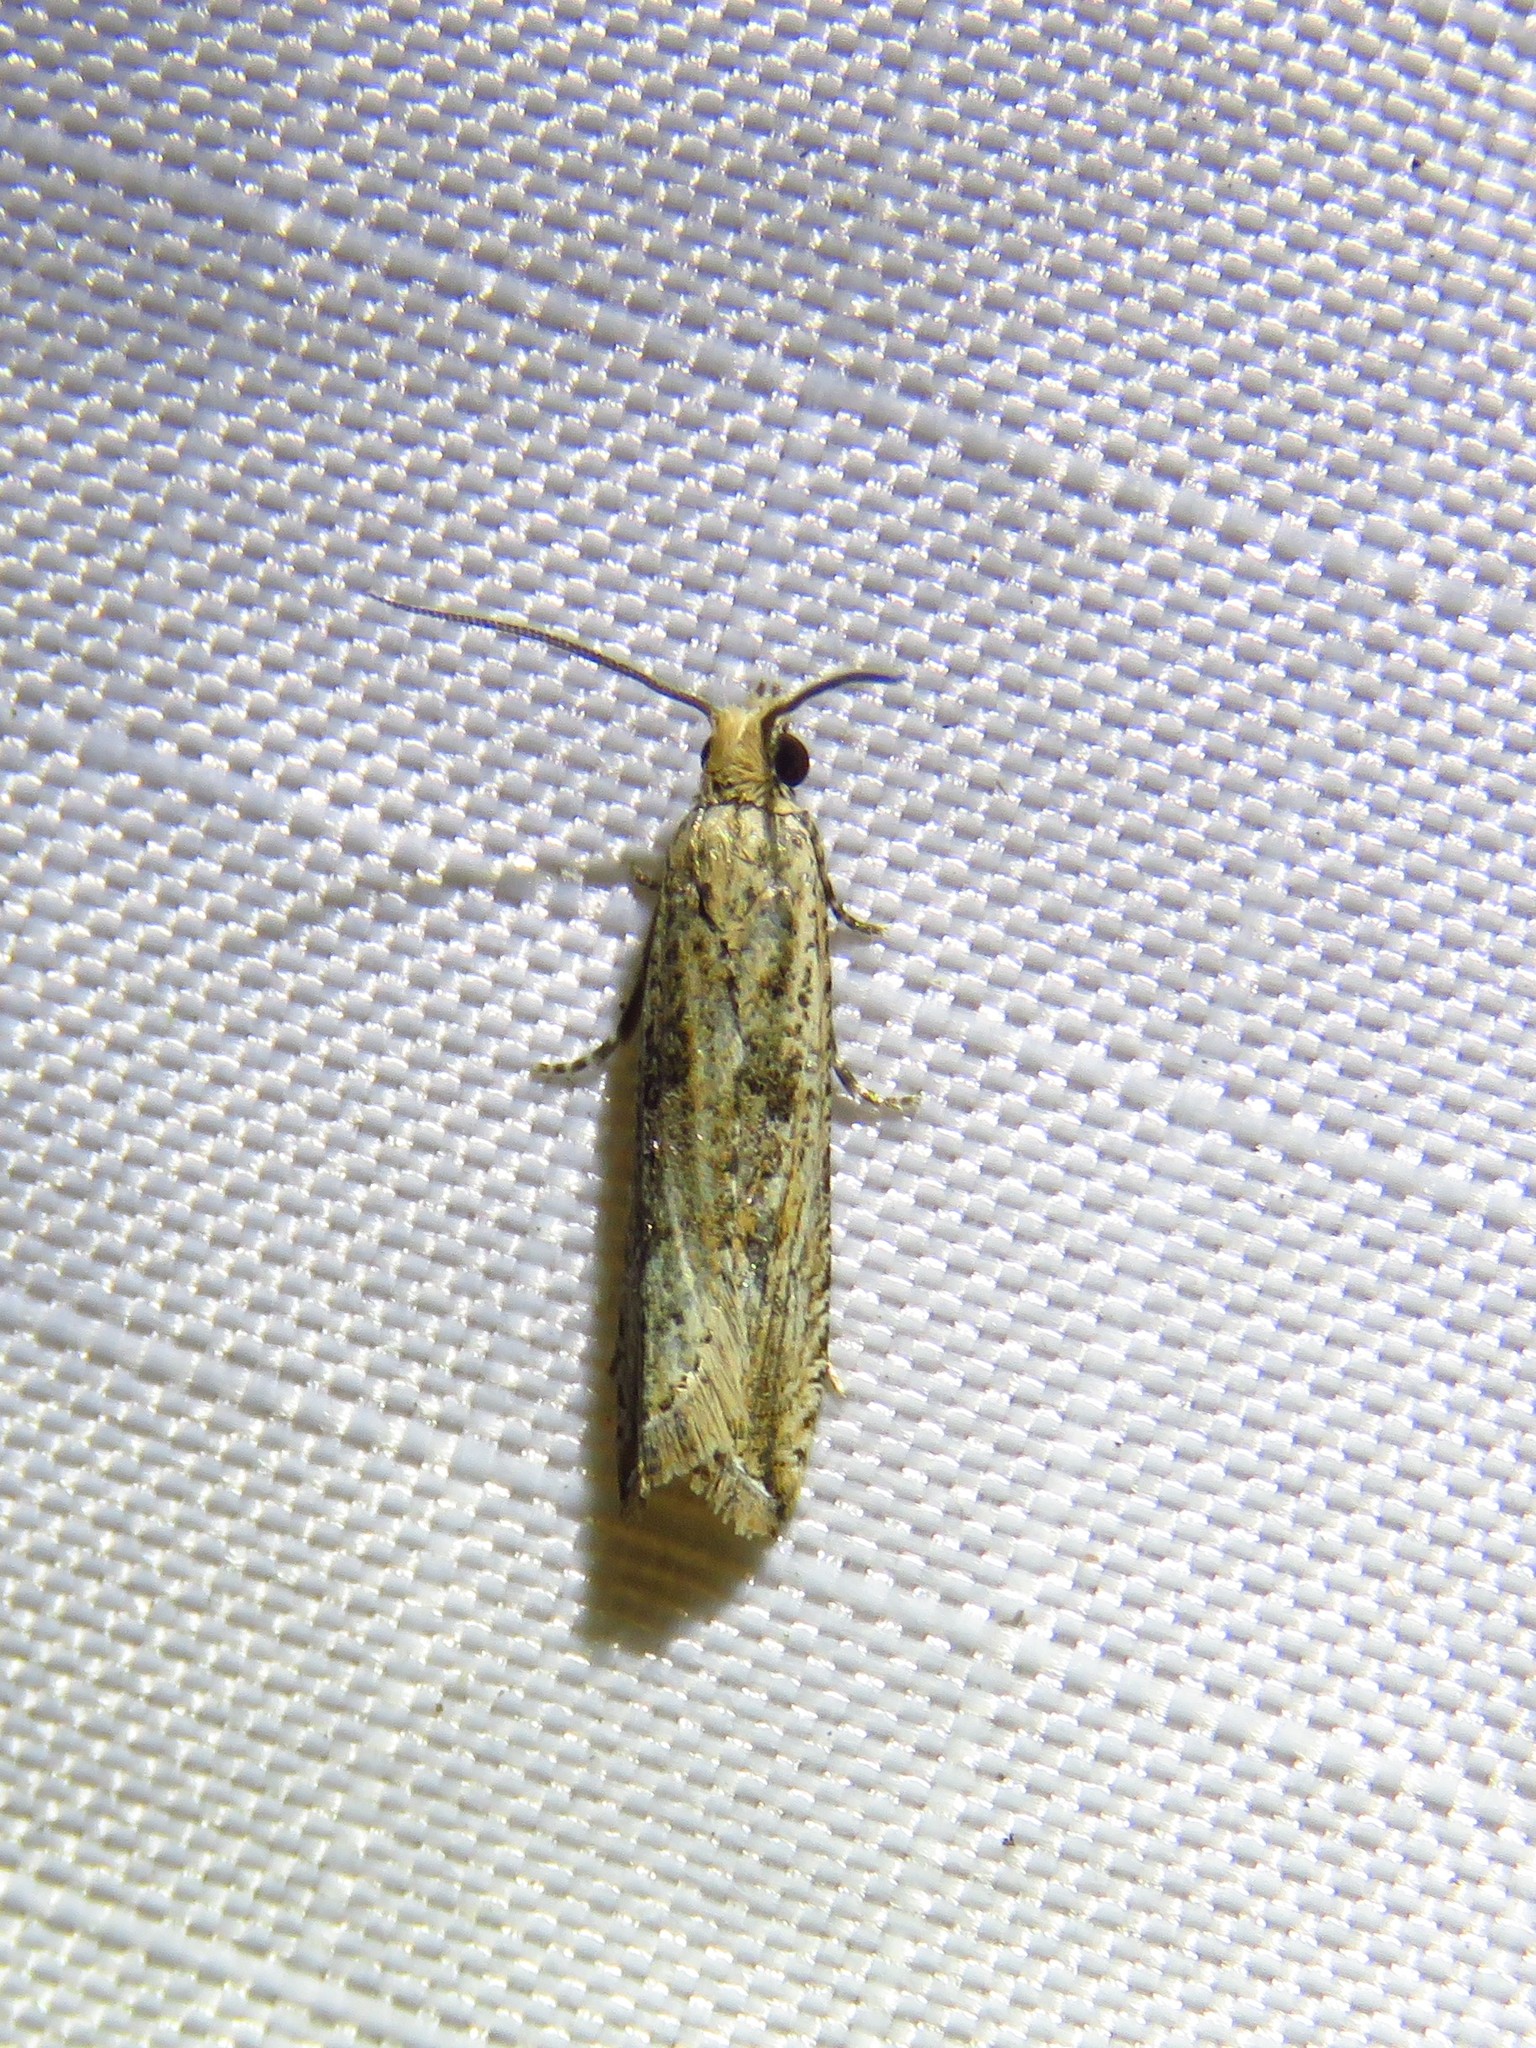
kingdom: Animalia
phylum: Arthropoda
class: Insecta
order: Lepidoptera
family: Tortricidae
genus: Bactra
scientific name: Bactra verutana
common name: Javelin moth
